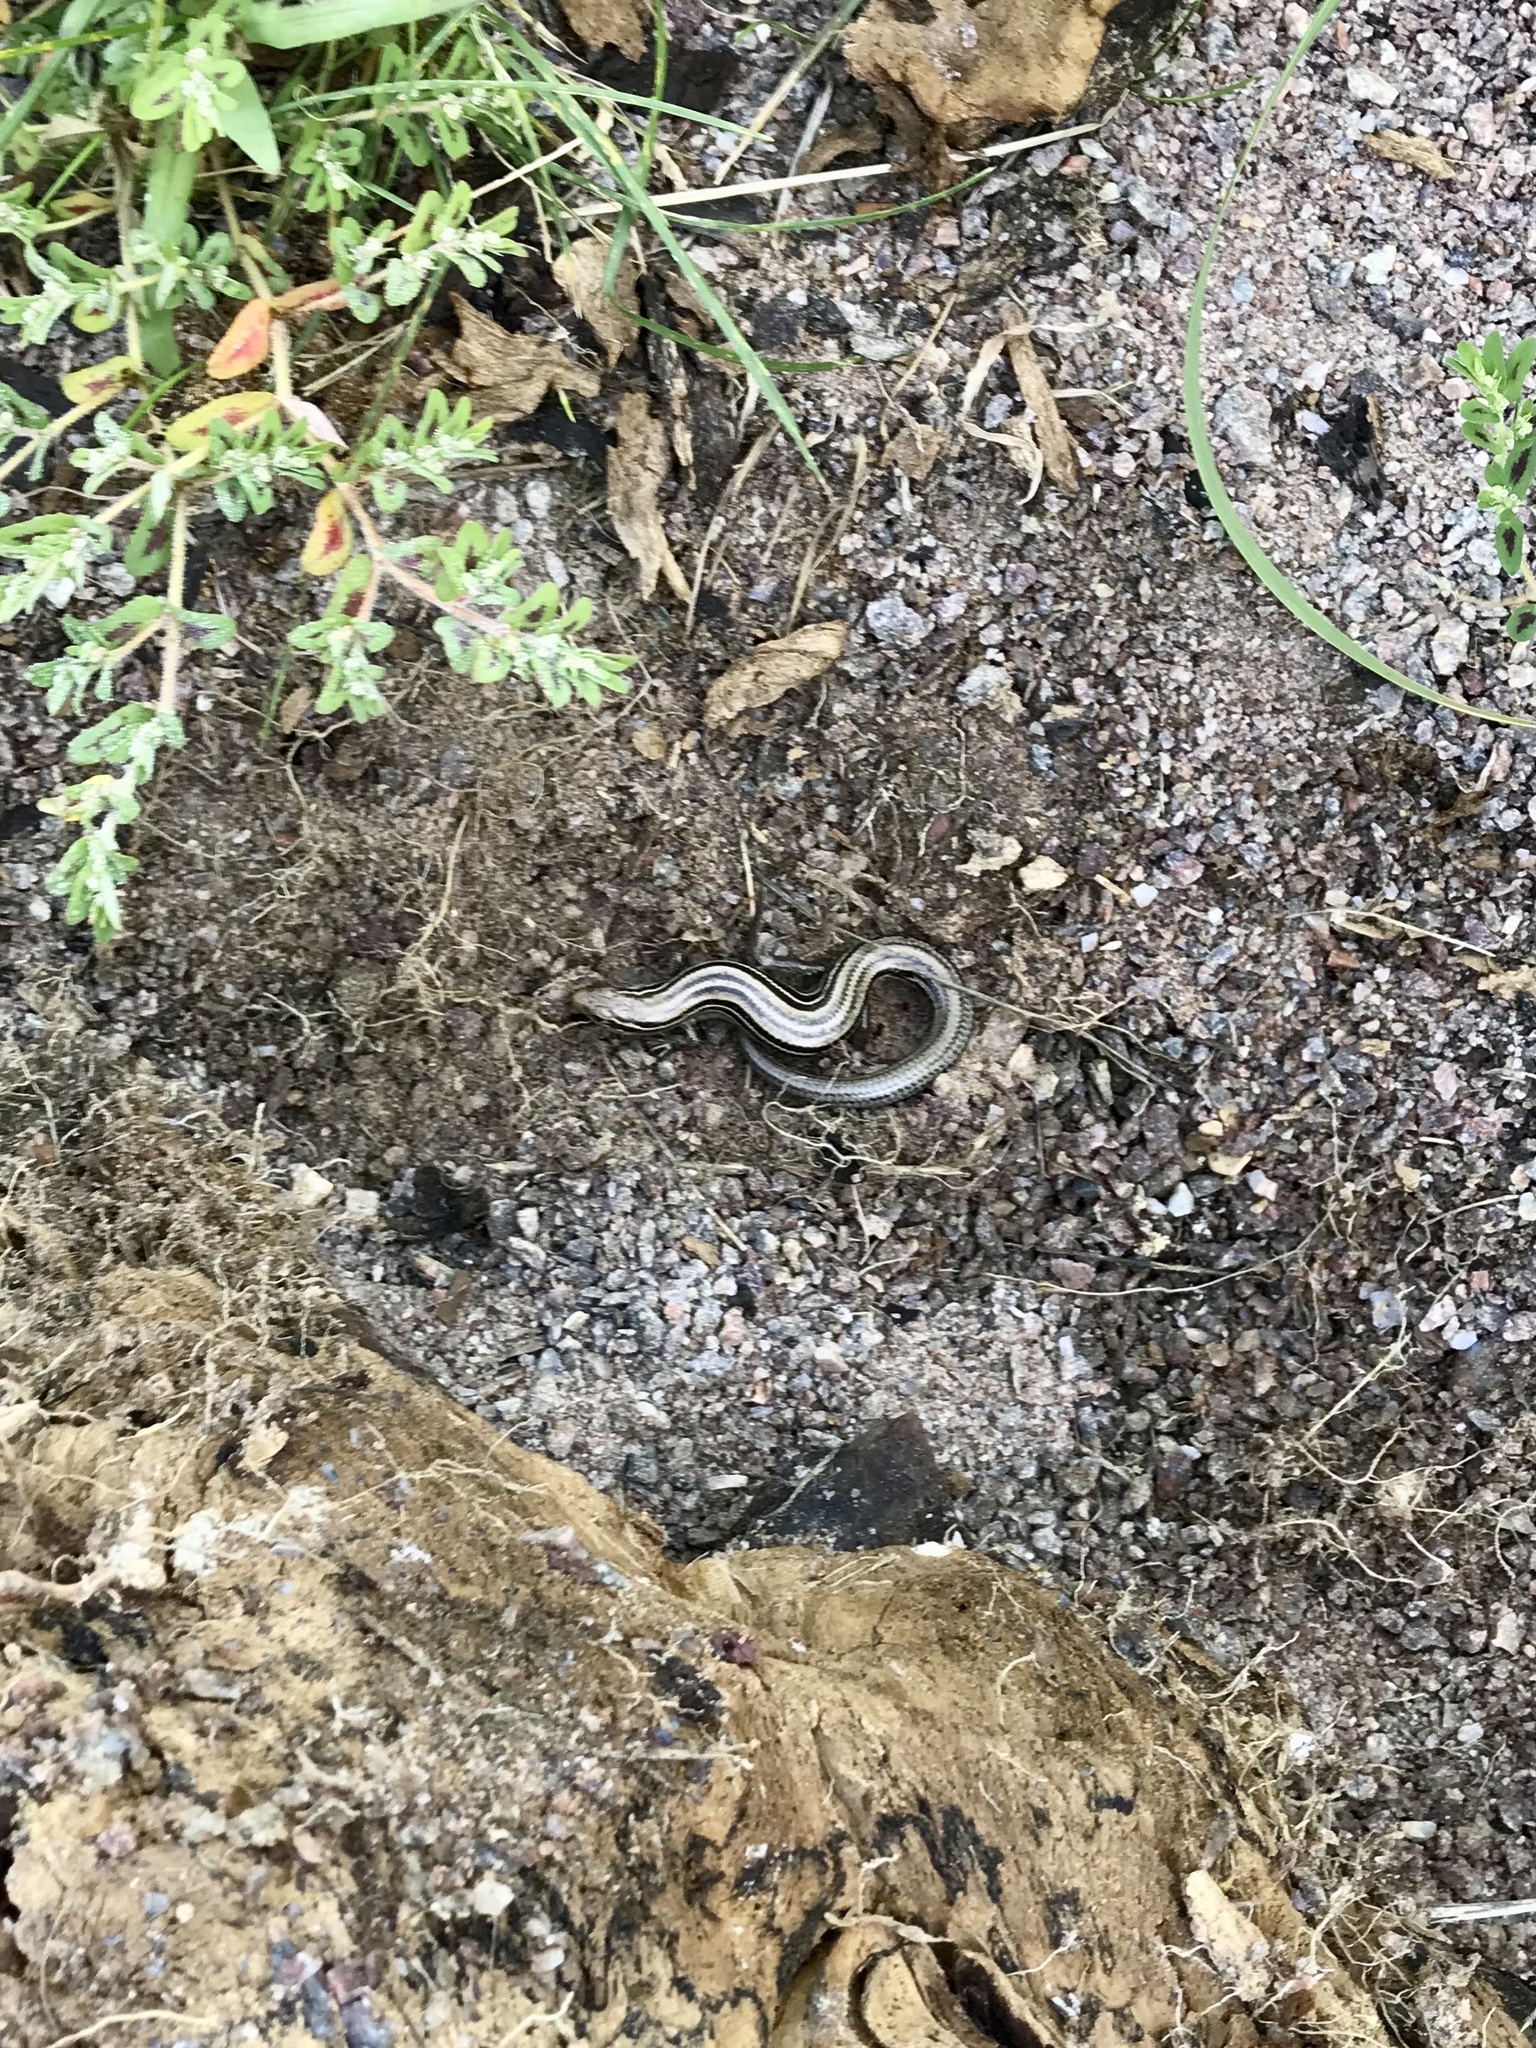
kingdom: Animalia
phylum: Chordata
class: Squamata
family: Scincidae
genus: Plestiodon
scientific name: Plestiodon septentrionalis
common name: Northern prairie skink
